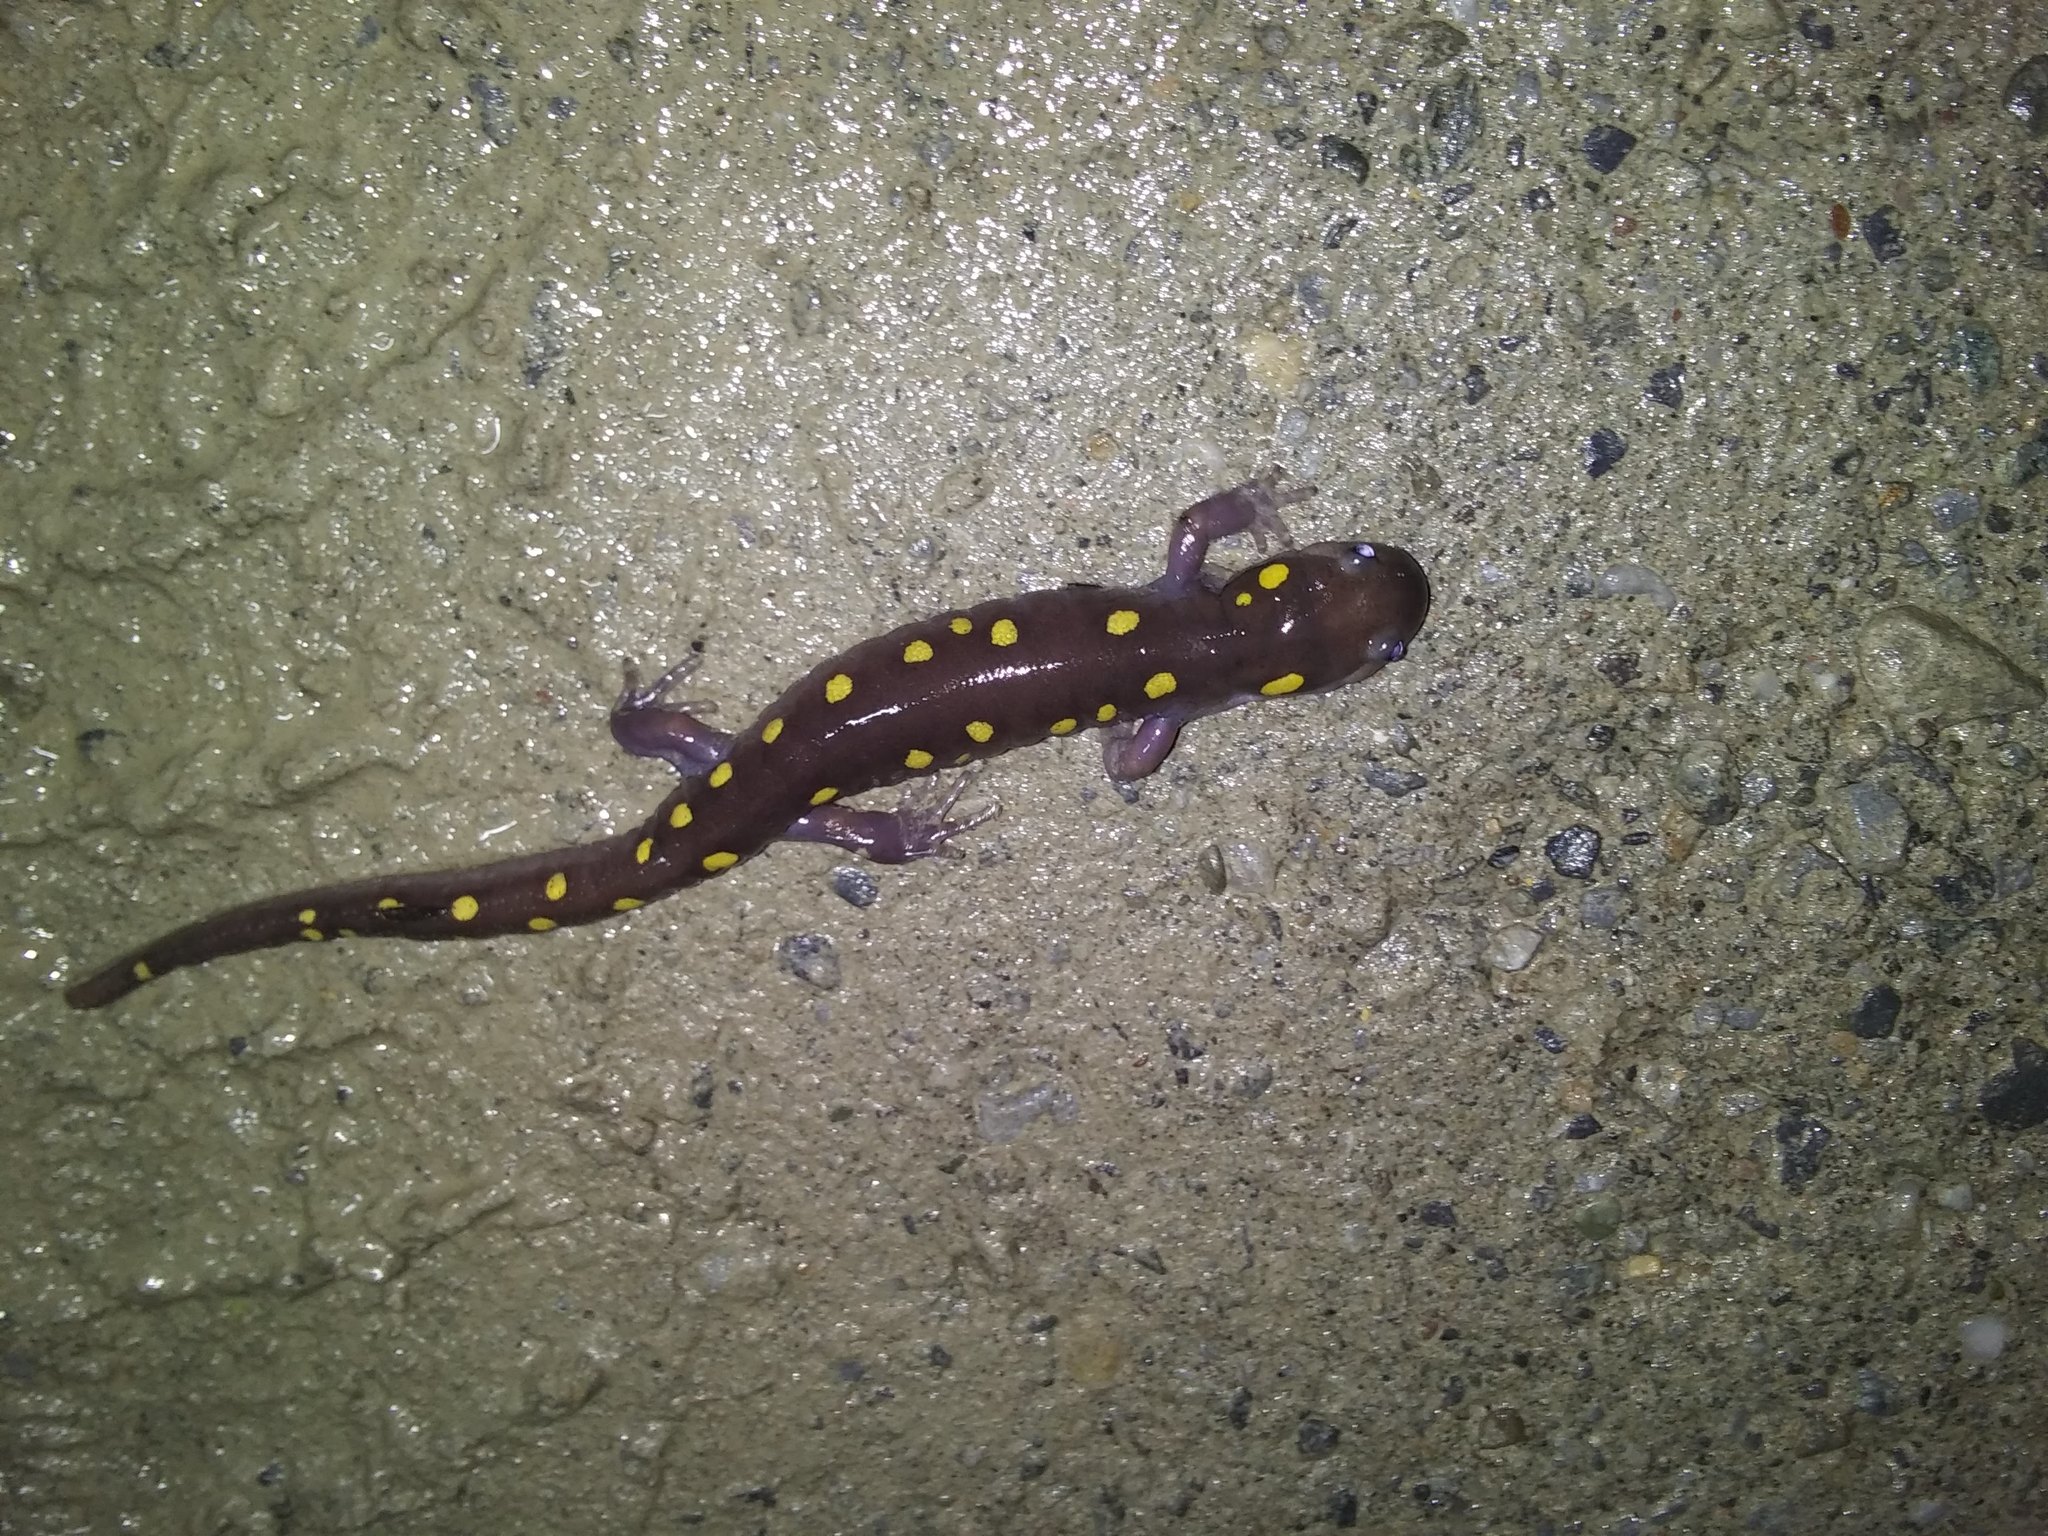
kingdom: Animalia
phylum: Chordata
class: Amphibia
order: Caudata
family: Ambystomatidae
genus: Ambystoma
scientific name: Ambystoma maculatum
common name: Spotted salamander
